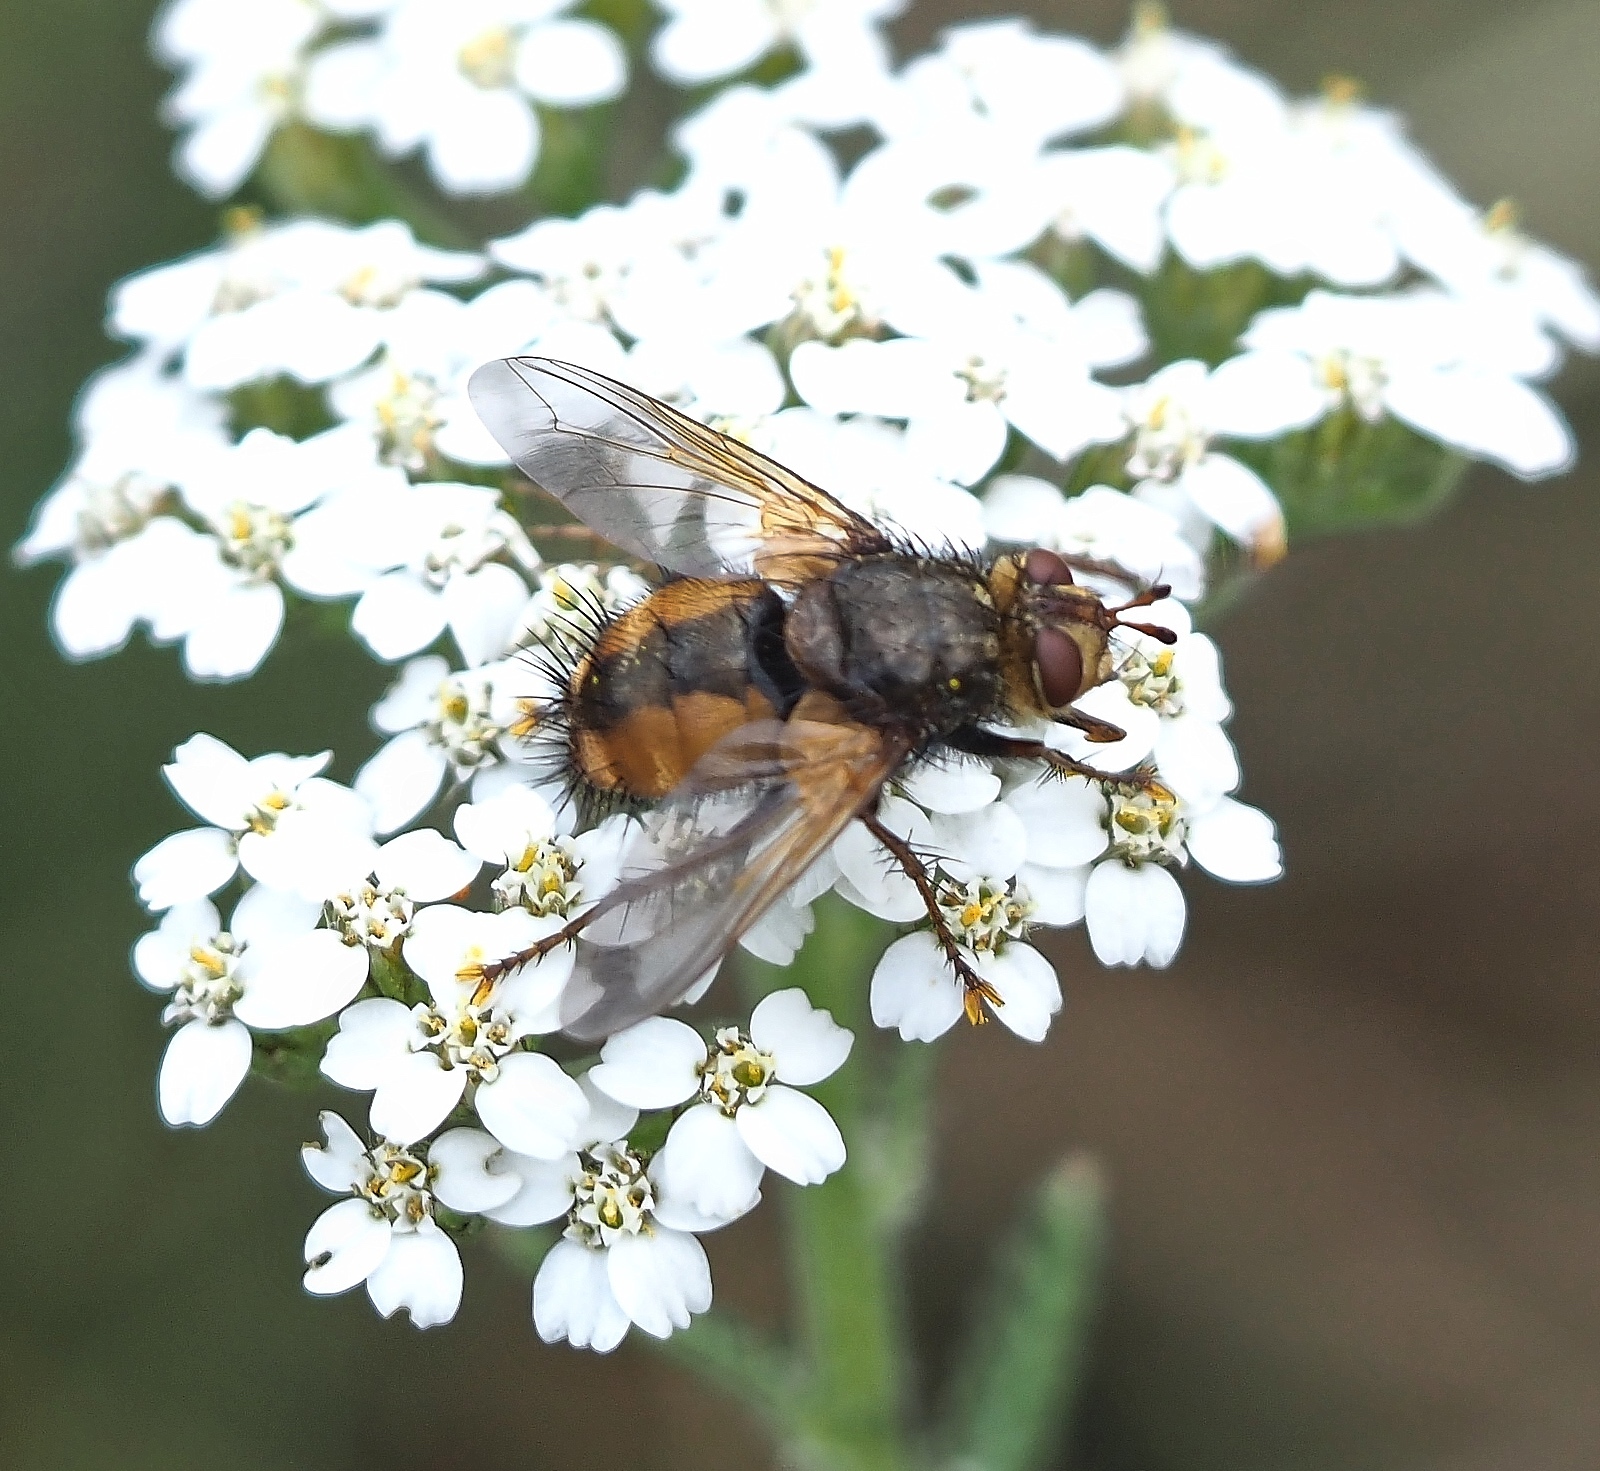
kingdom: Animalia
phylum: Arthropoda
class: Insecta
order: Diptera
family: Tachinidae
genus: Tachina
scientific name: Tachina fera
